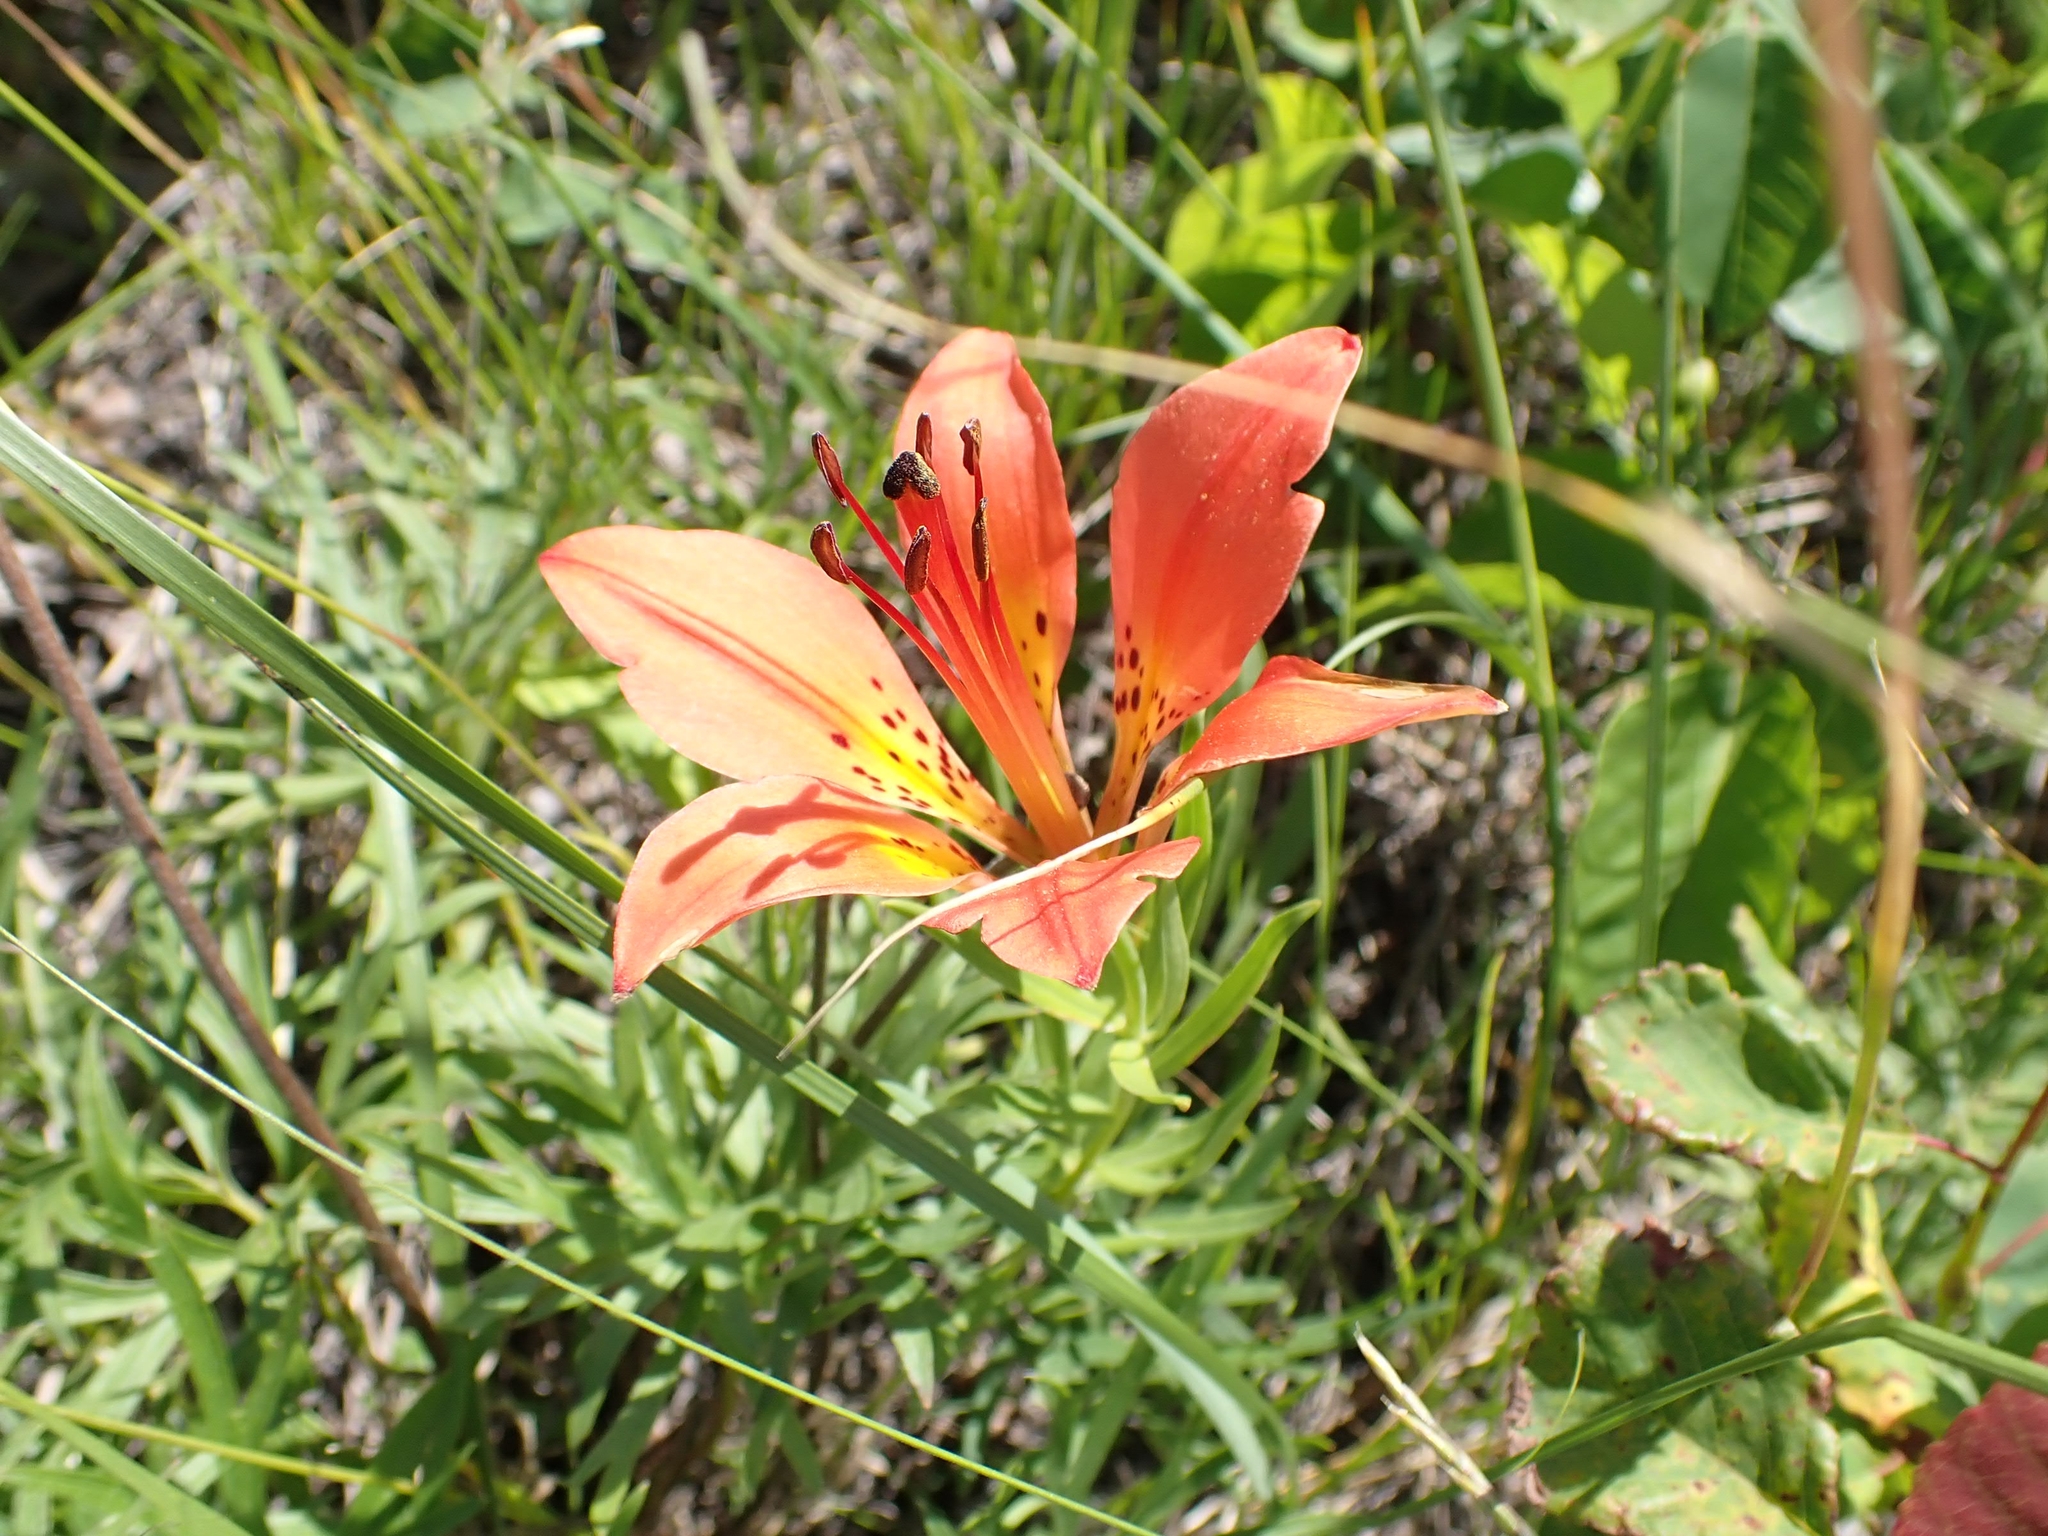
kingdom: Plantae
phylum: Tracheophyta
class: Liliopsida
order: Liliales
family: Liliaceae
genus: Lilium
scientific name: Lilium philadelphicum
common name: Red lily
